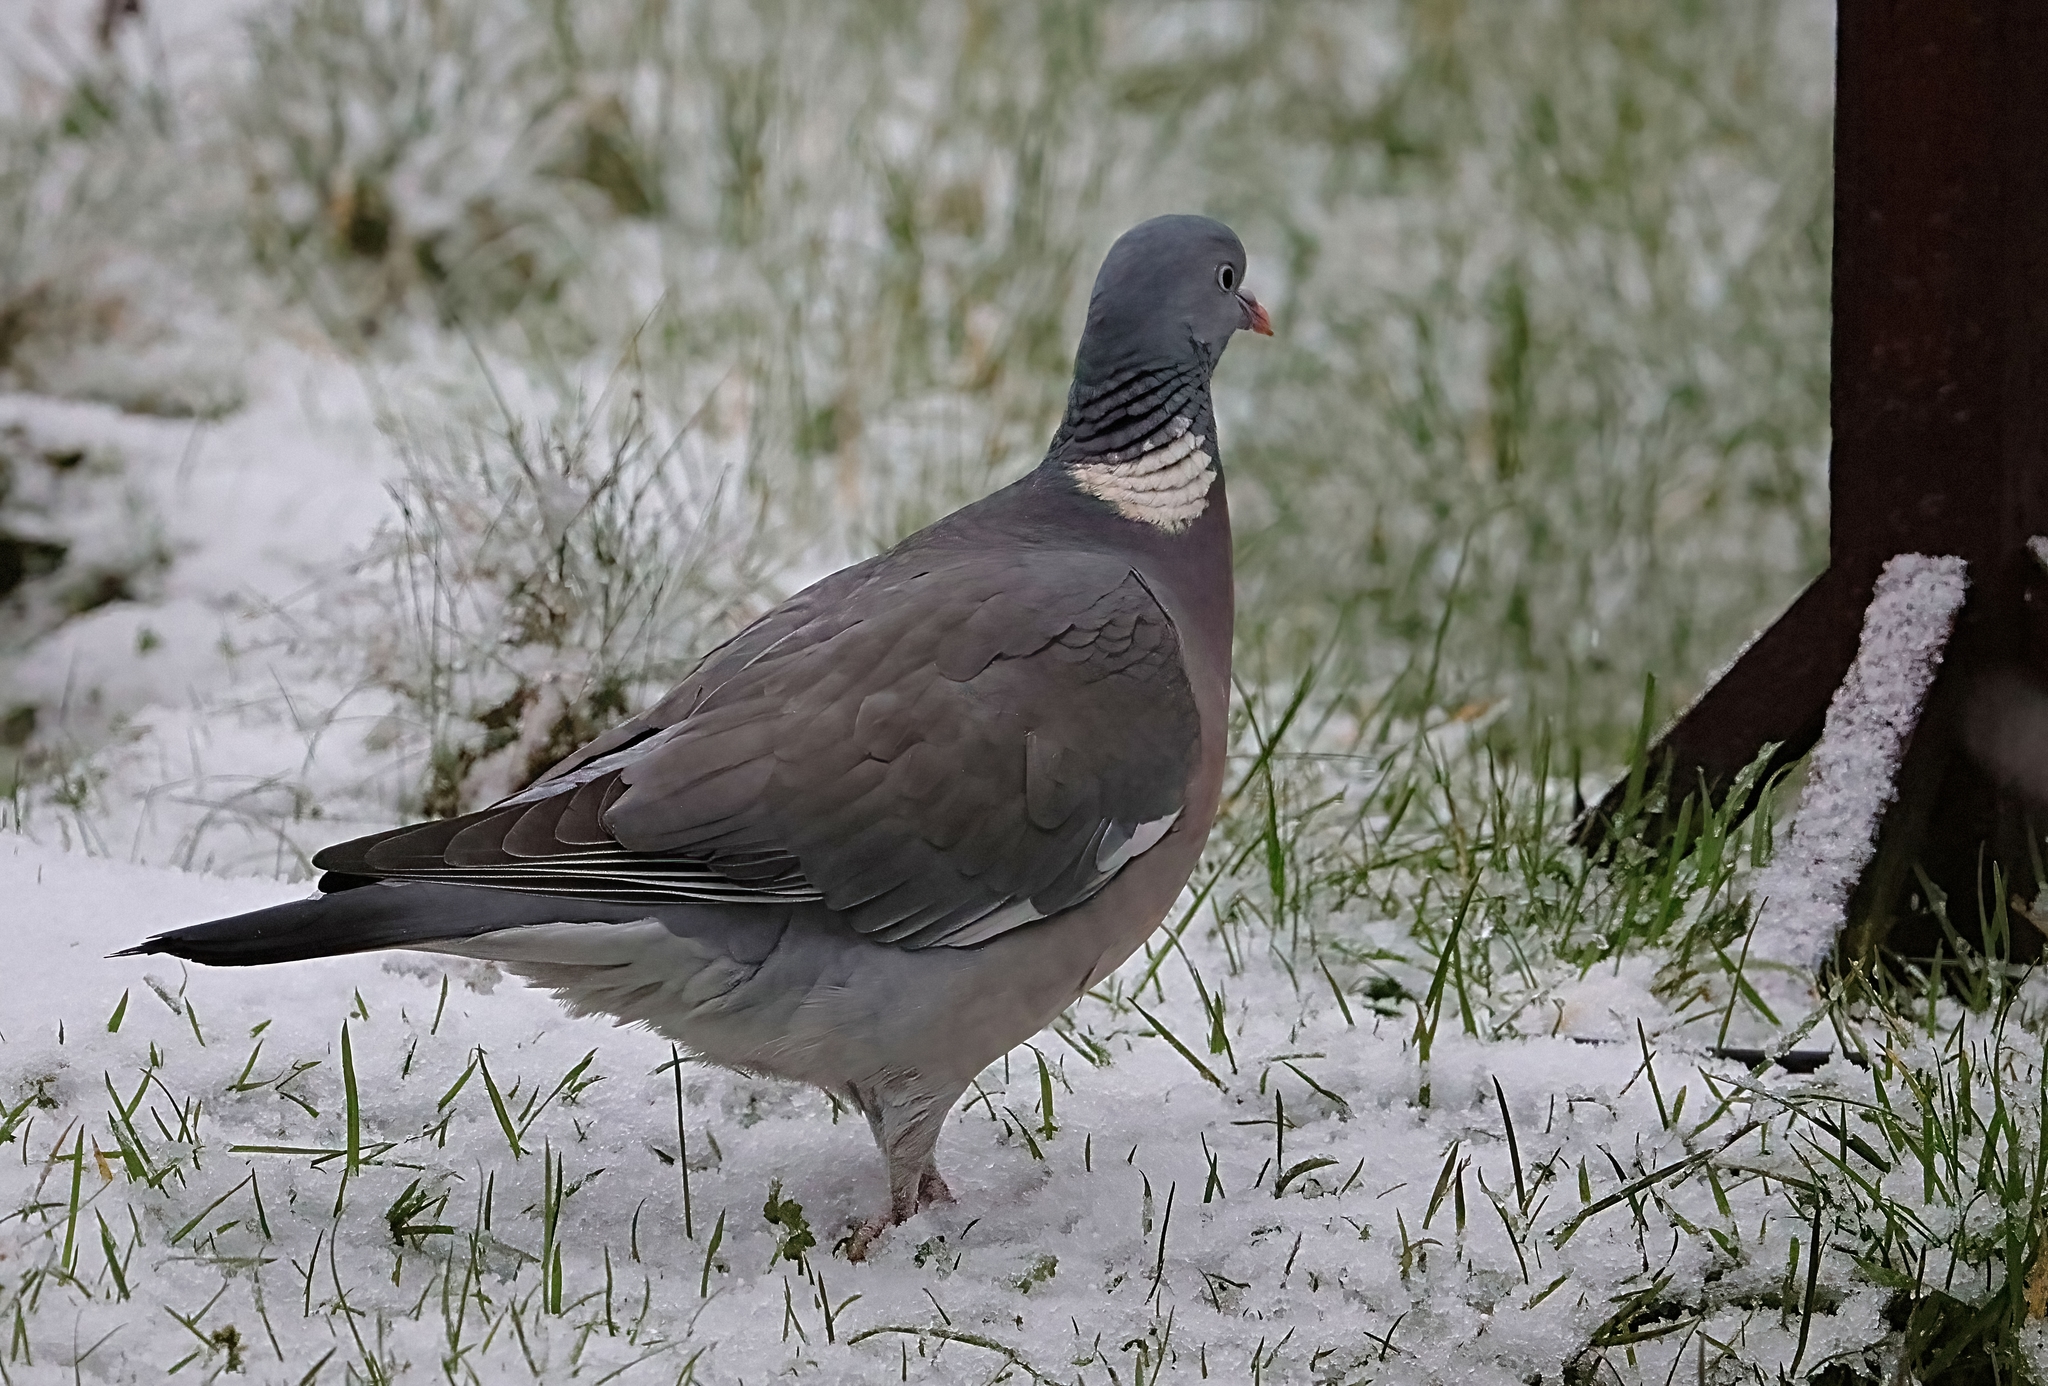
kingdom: Animalia
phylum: Chordata
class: Aves
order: Columbiformes
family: Columbidae
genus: Columba
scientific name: Columba palumbus
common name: Common wood pigeon
